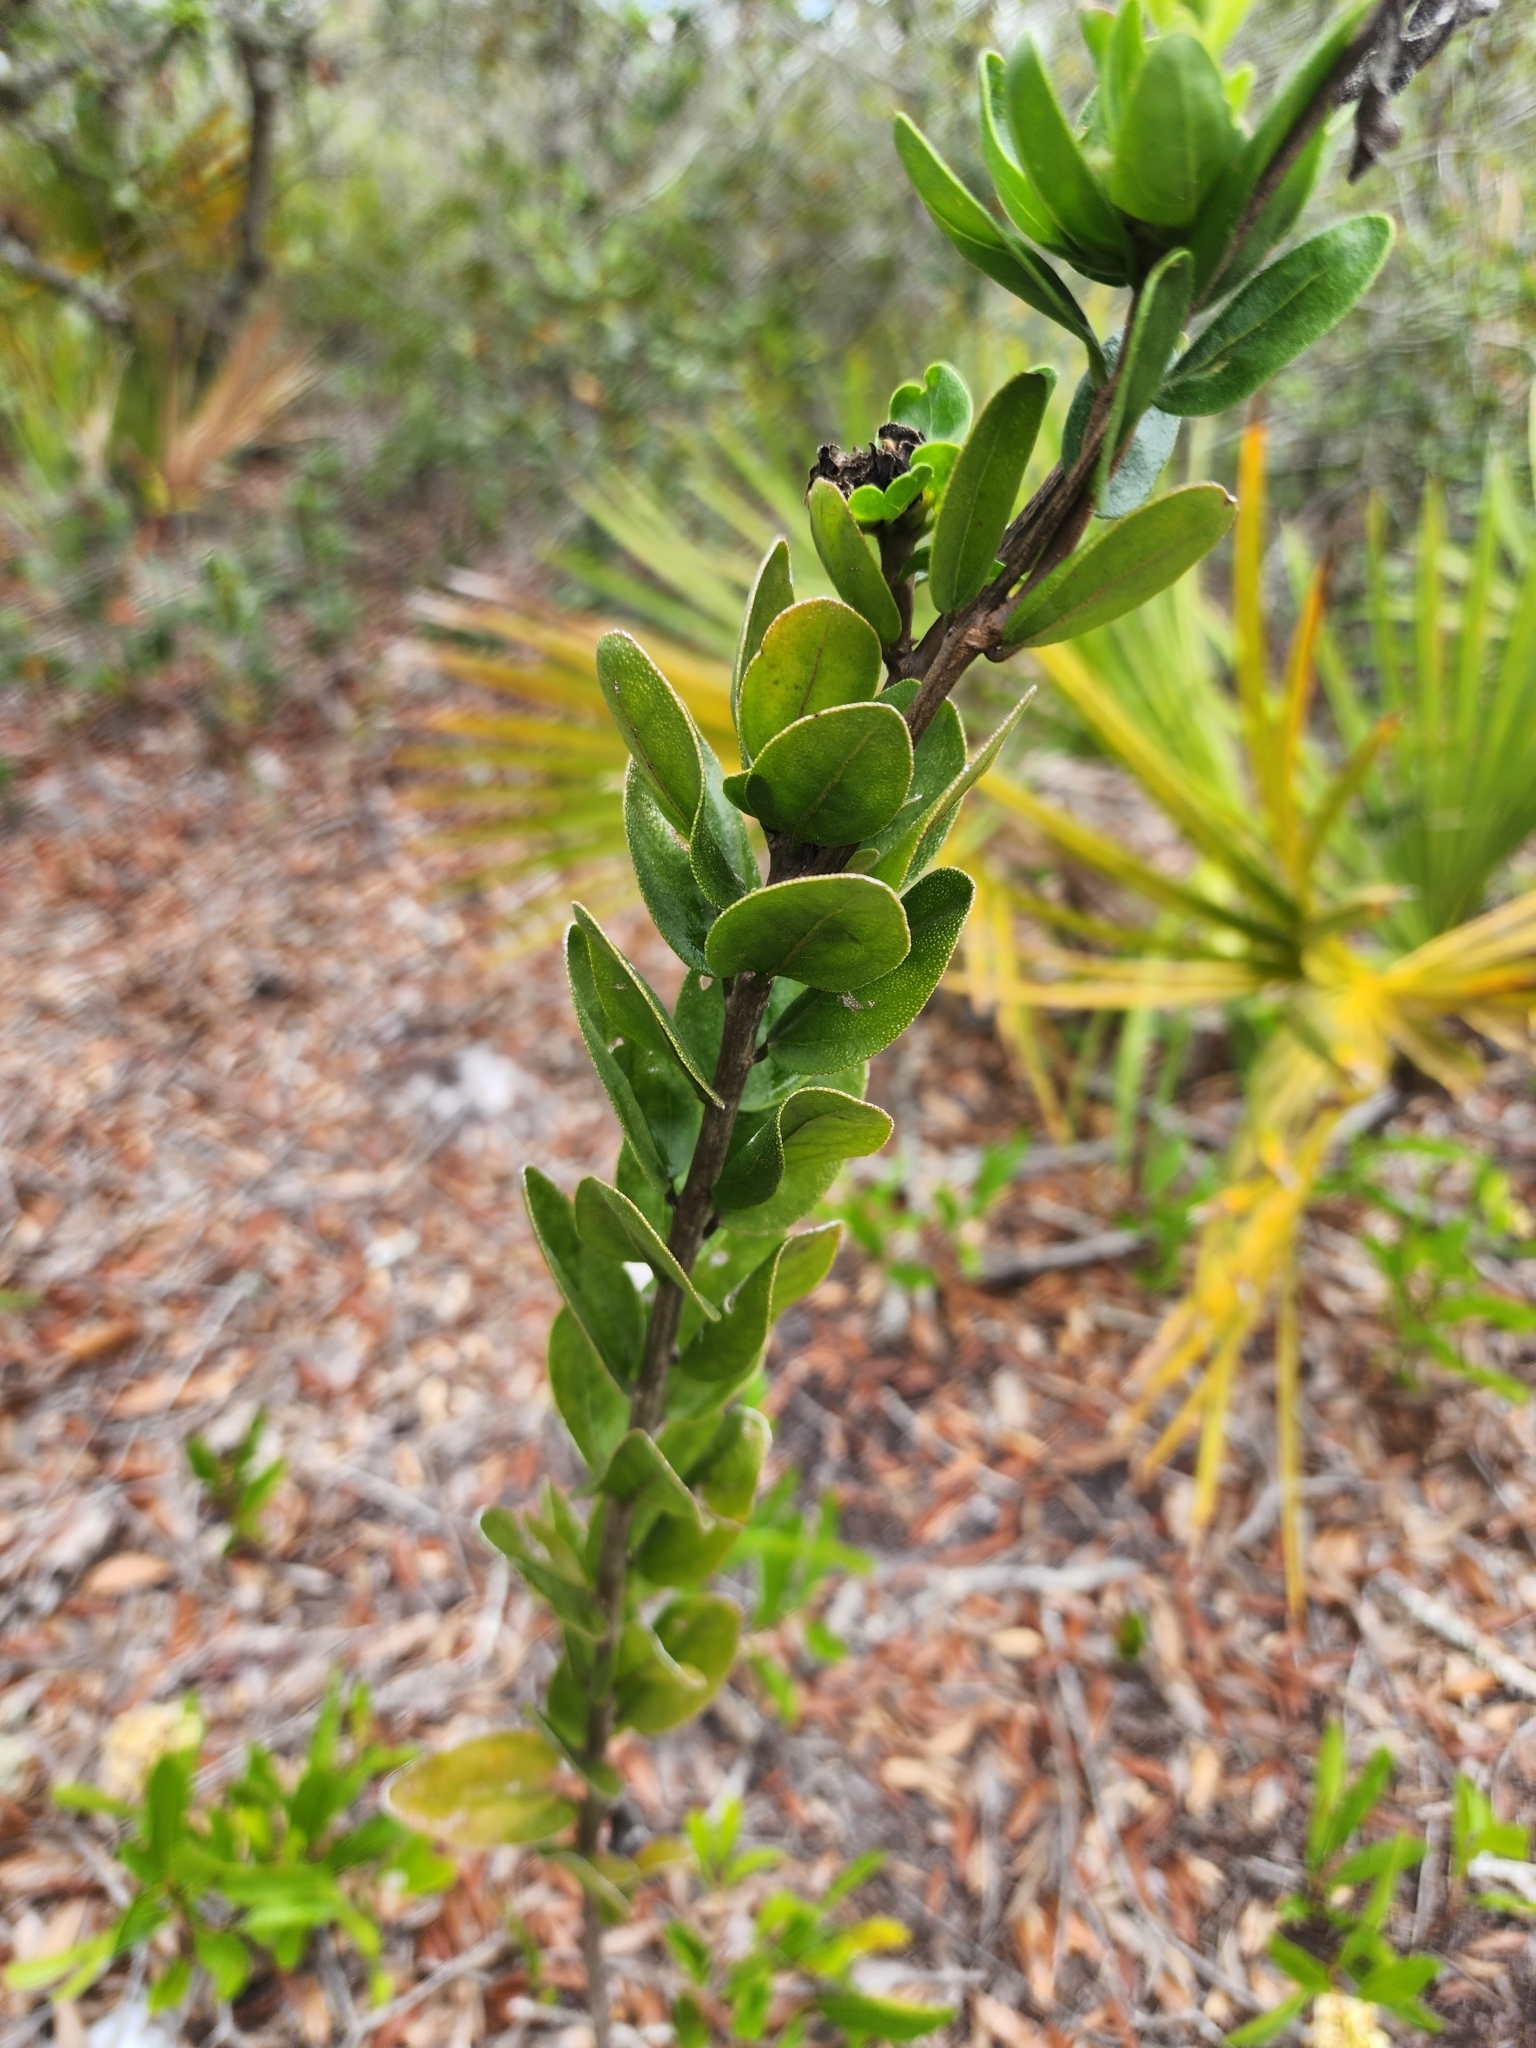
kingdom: Plantae
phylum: Tracheophyta
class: Magnoliopsida
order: Asterales
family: Asteraceae
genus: Palafoxia
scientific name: Palafoxia feayi
